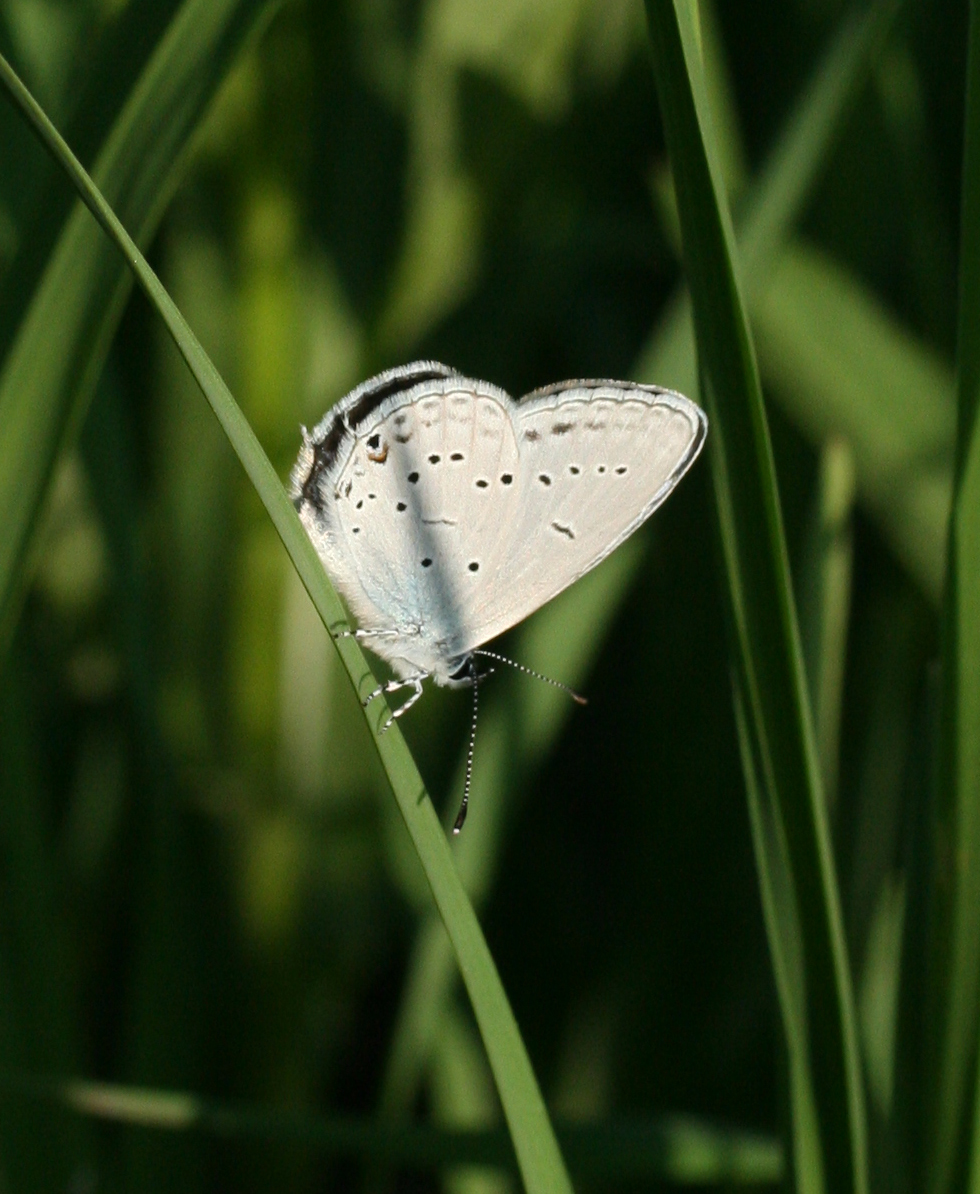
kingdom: Animalia
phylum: Arthropoda
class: Insecta
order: Lepidoptera
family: Lycaenidae
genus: Elkalyce
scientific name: Elkalyce alcetas
